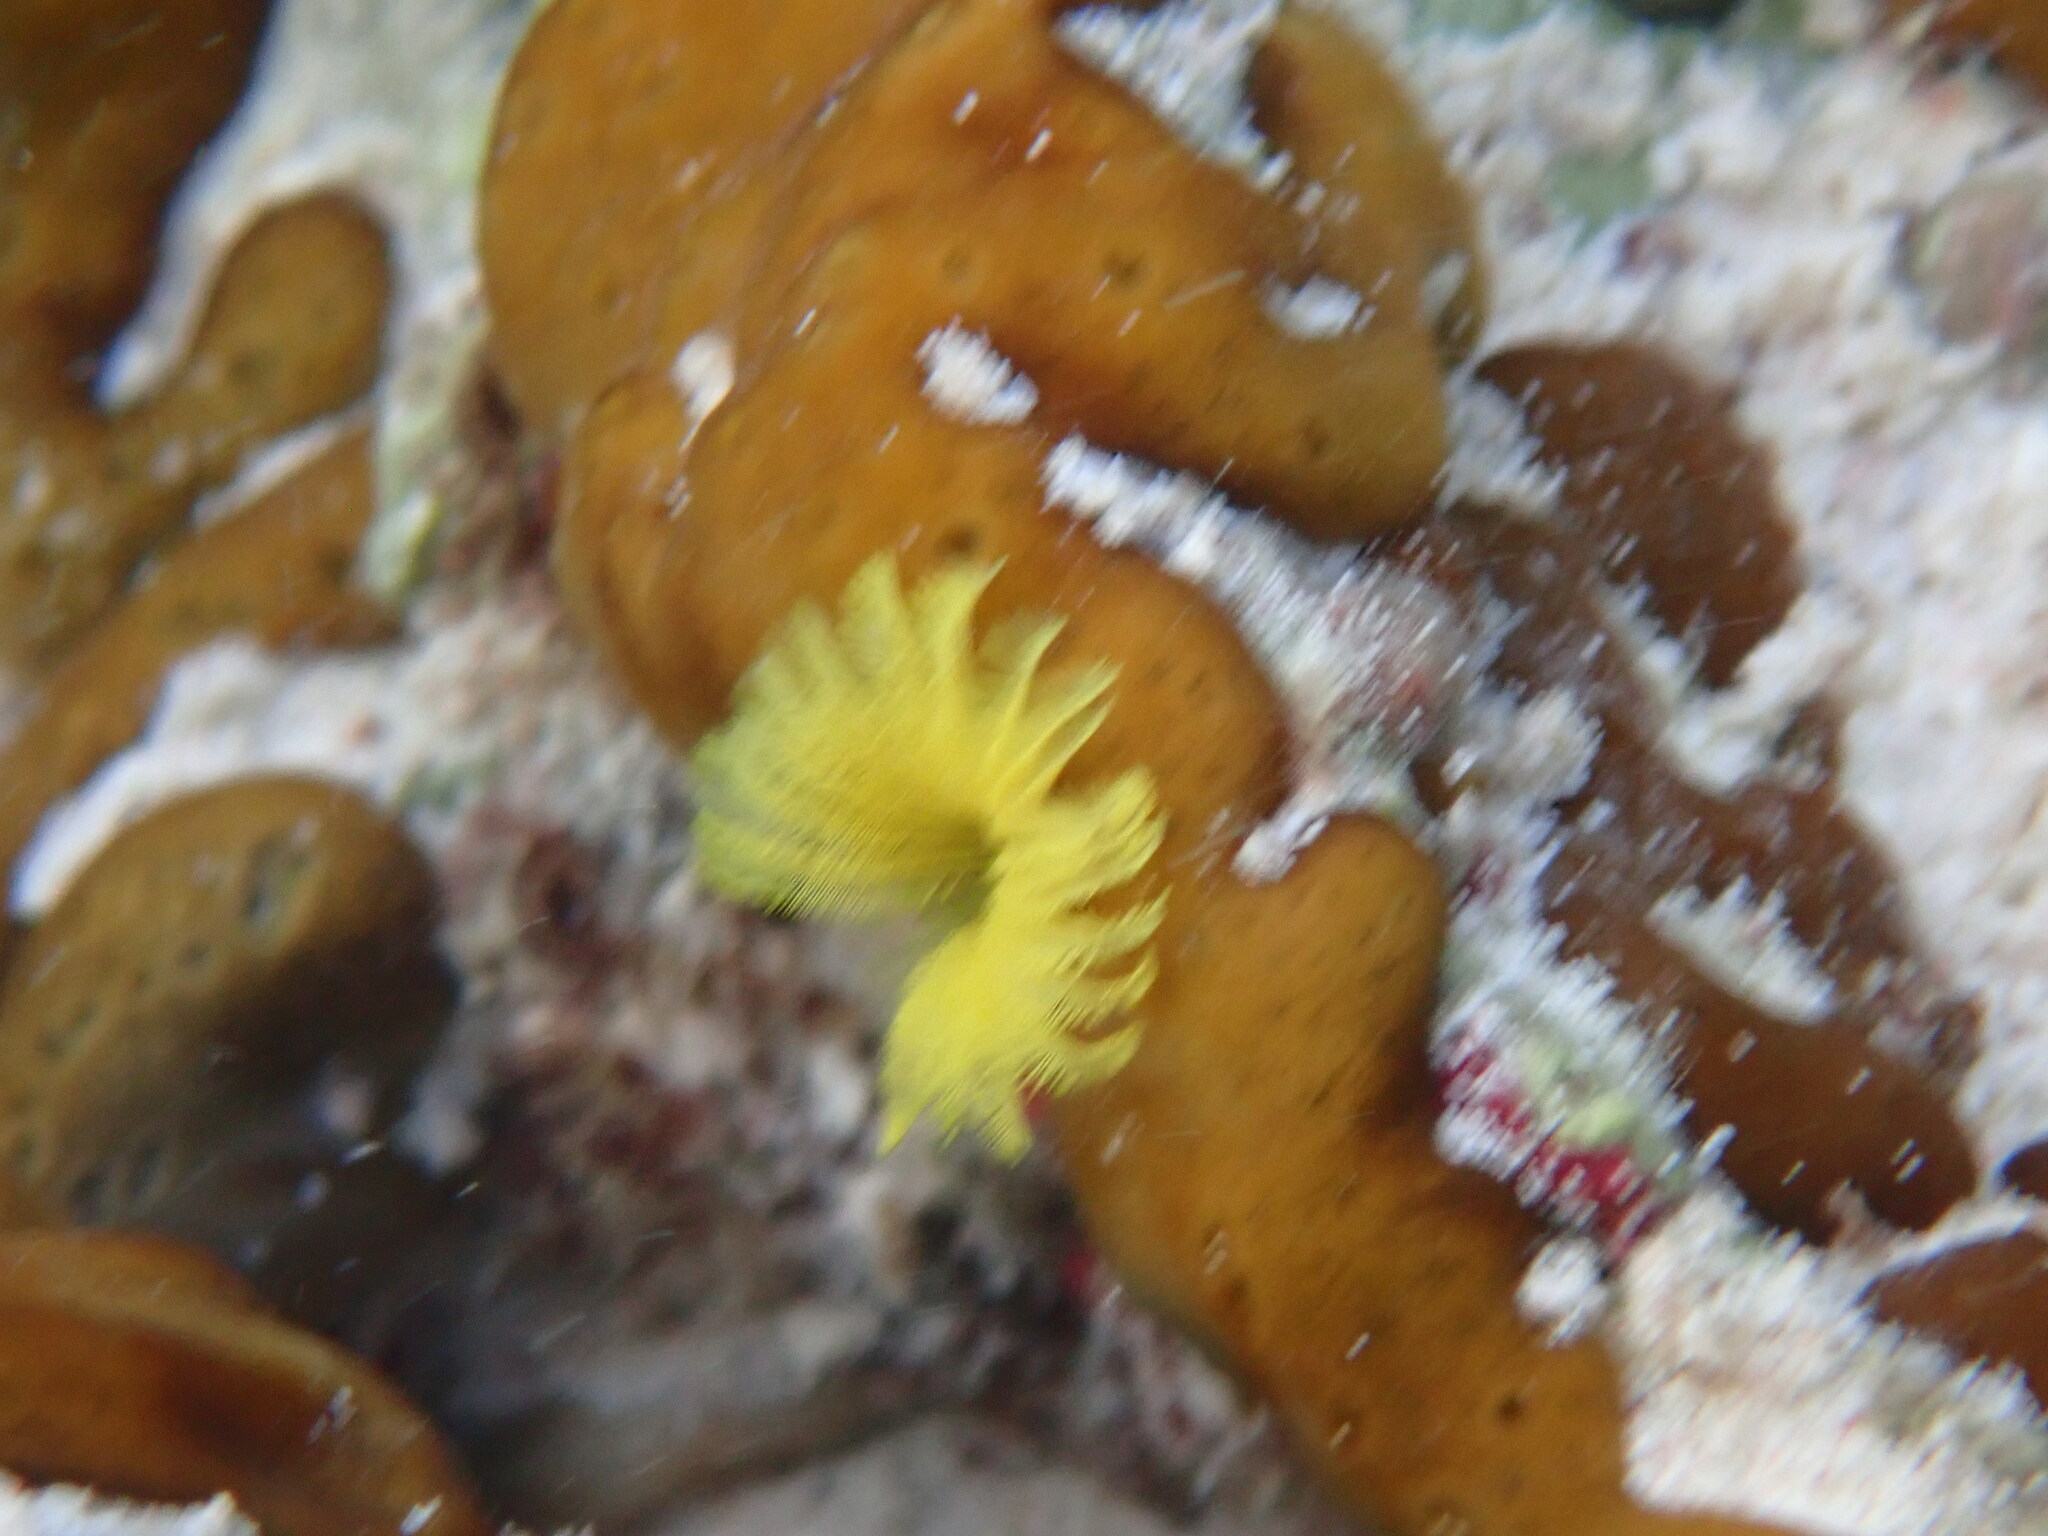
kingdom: Animalia
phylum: Annelida
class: Polychaeta
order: Sabellida
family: Sabellidae
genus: Notaulax
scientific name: Notaulax occidentalis
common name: Yellow fanworm
